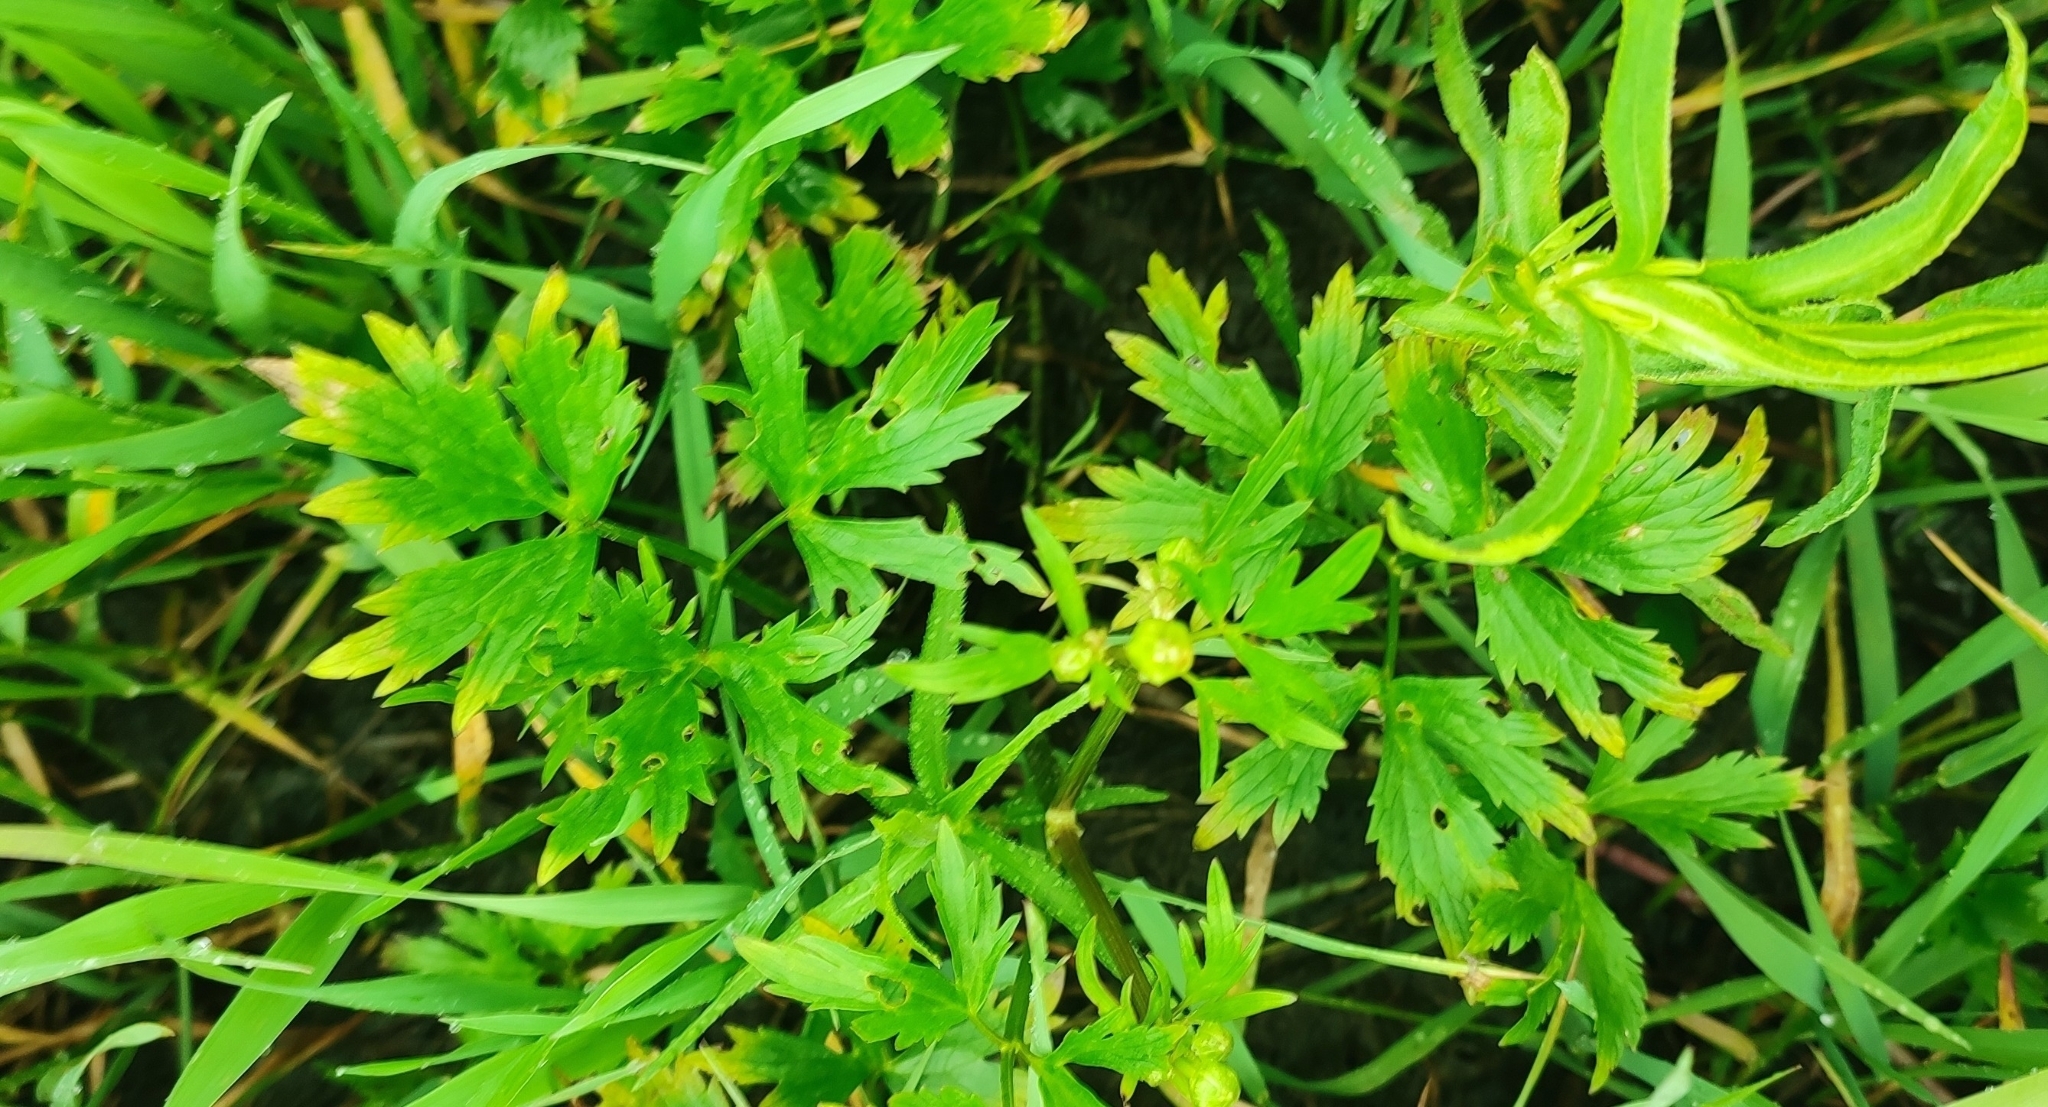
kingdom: Plantae
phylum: Tracheophyta
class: Magnoliopsida
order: Ranunculales
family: Ranunculaceae
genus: Ranunculus
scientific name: Ranunculus repens
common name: Creeping buttercup
